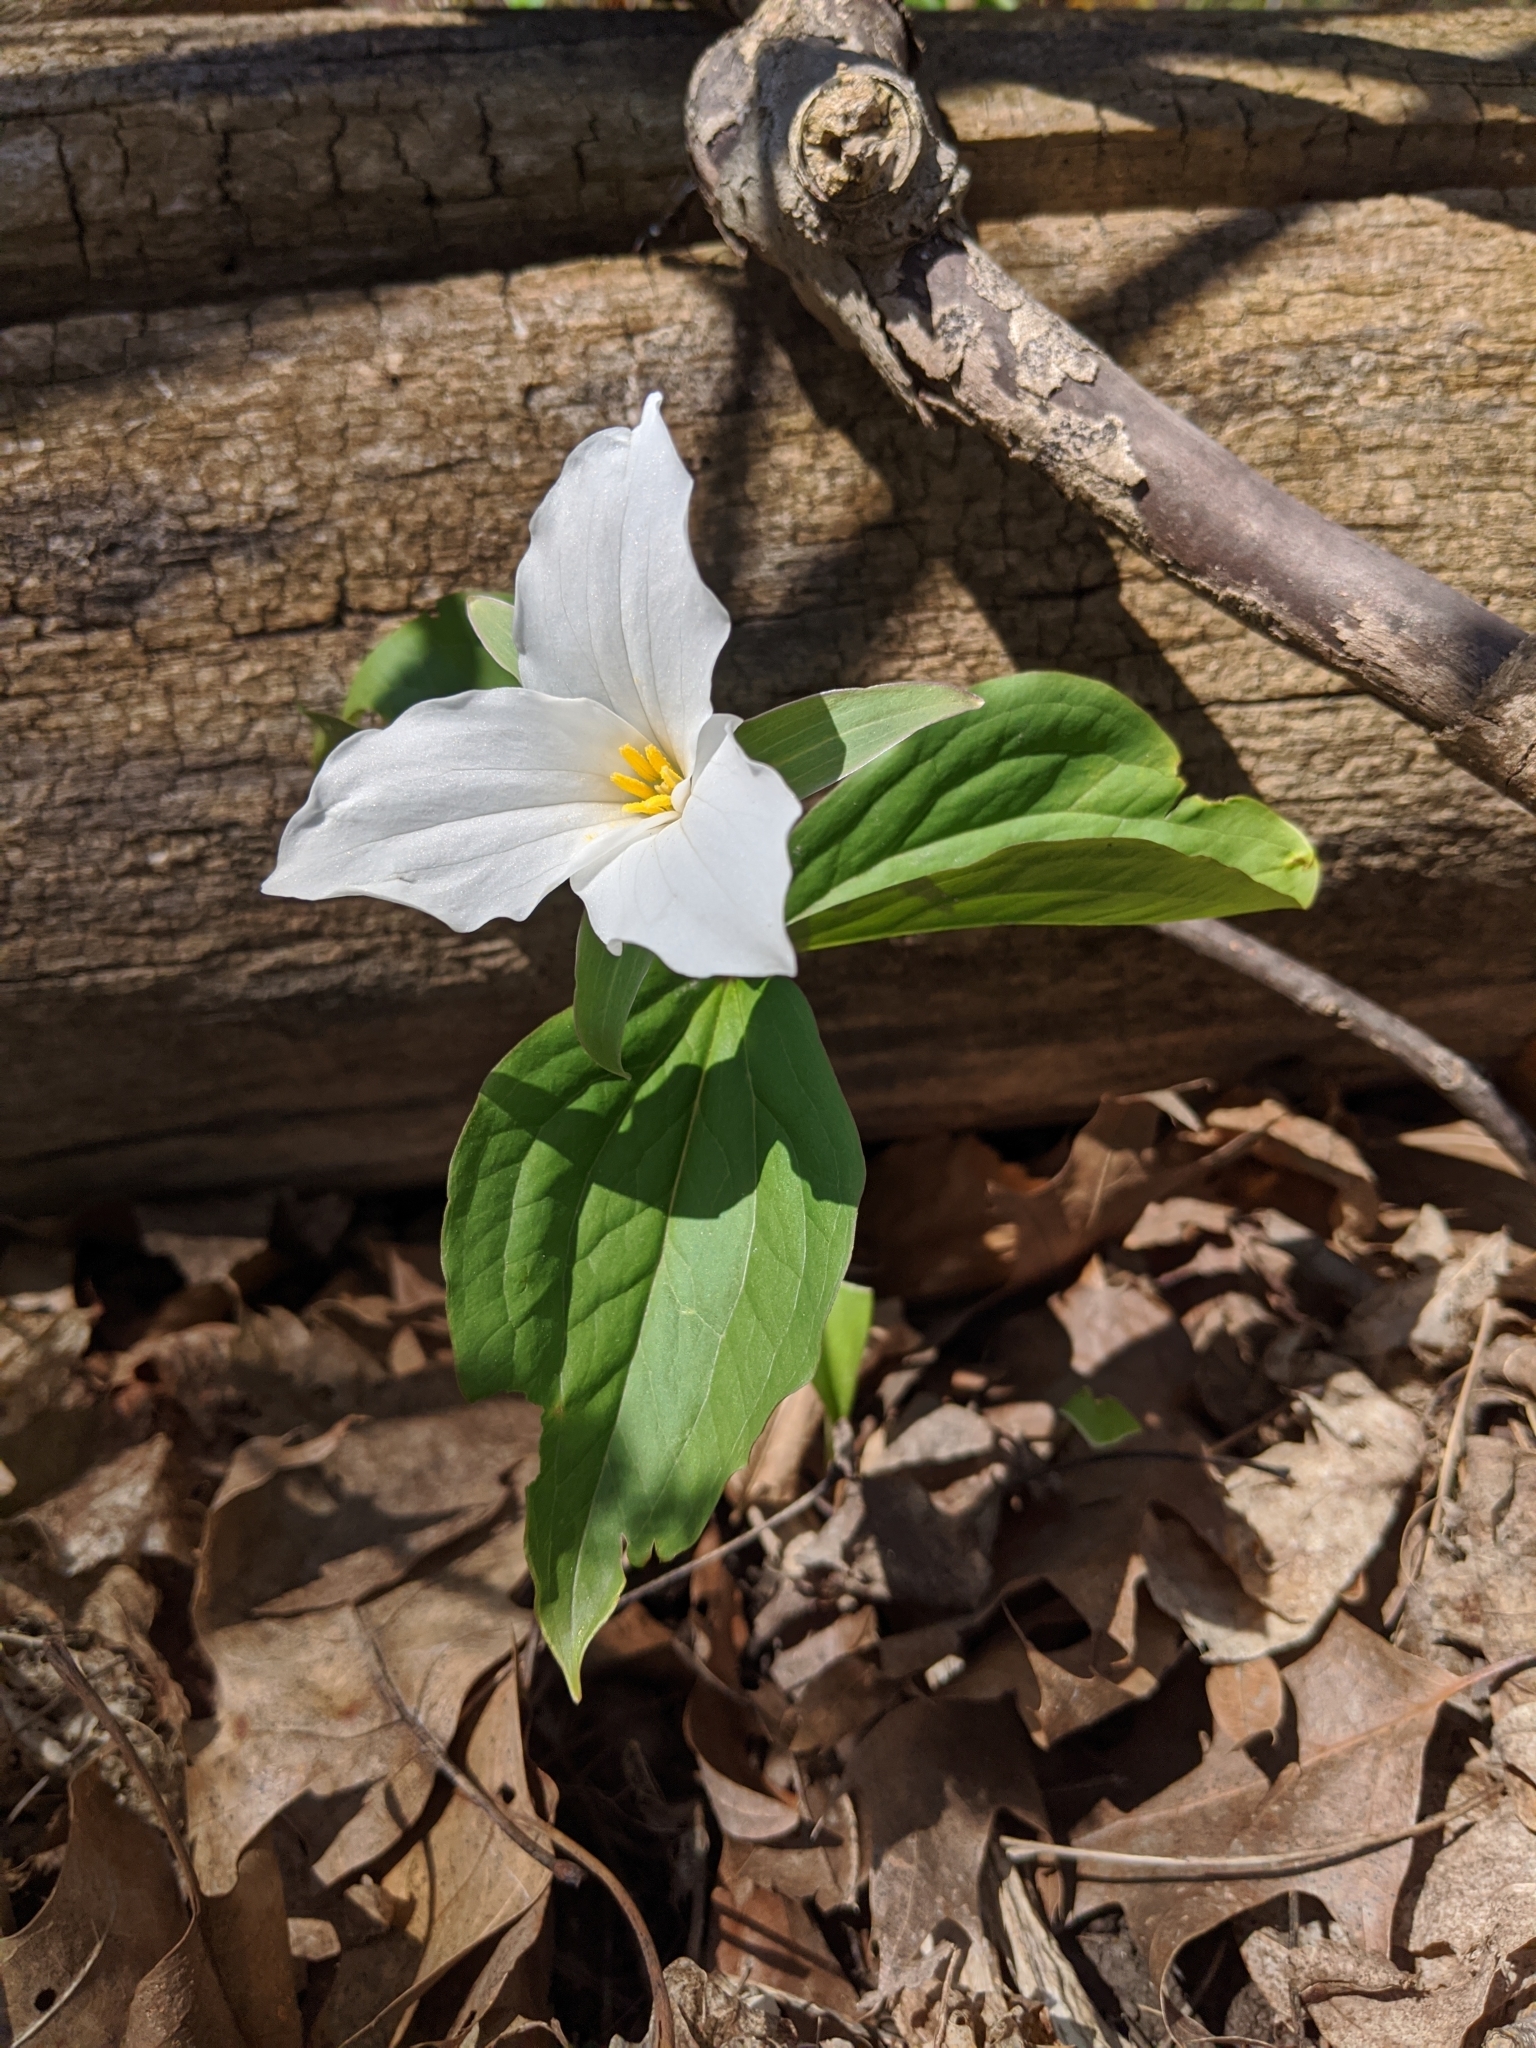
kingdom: Plantae
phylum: Tracheophyta
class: Liliopsida
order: Liliales
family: Melanthiaceae
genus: Trillium
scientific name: Trillium grandiflorum
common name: Great white trillium
